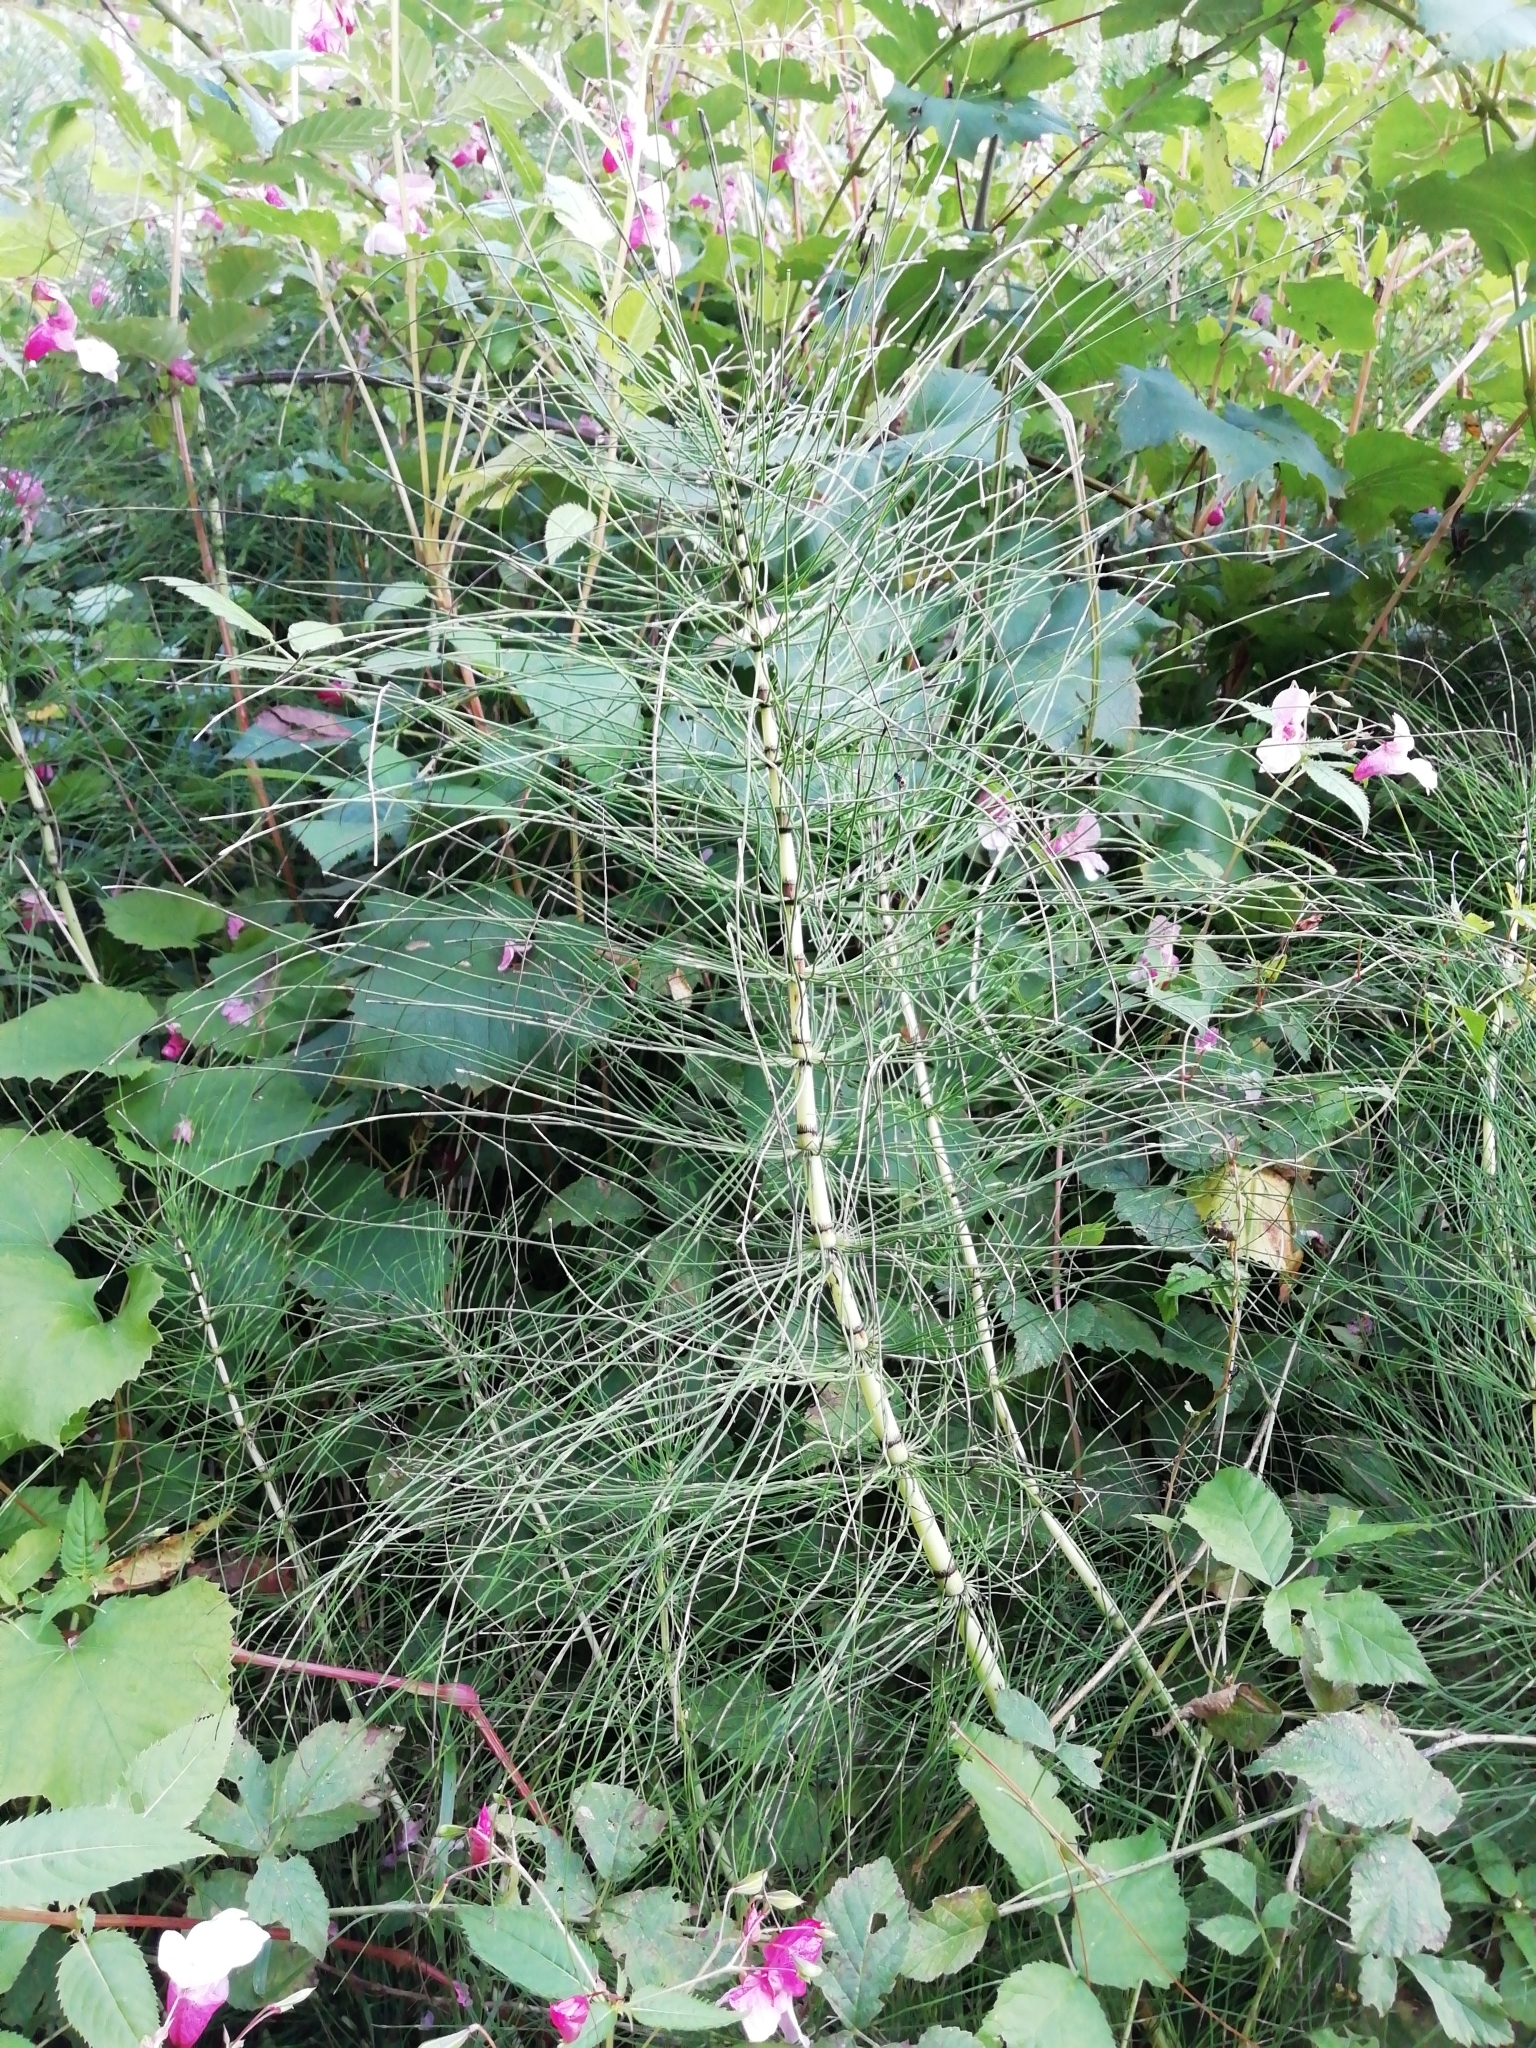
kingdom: Plantae
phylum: Tracheophyta
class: Polypodiopsida
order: Equisetales
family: Equisetaceae
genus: Equisetum
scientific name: Equisetum telmateia
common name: Great horsetail
